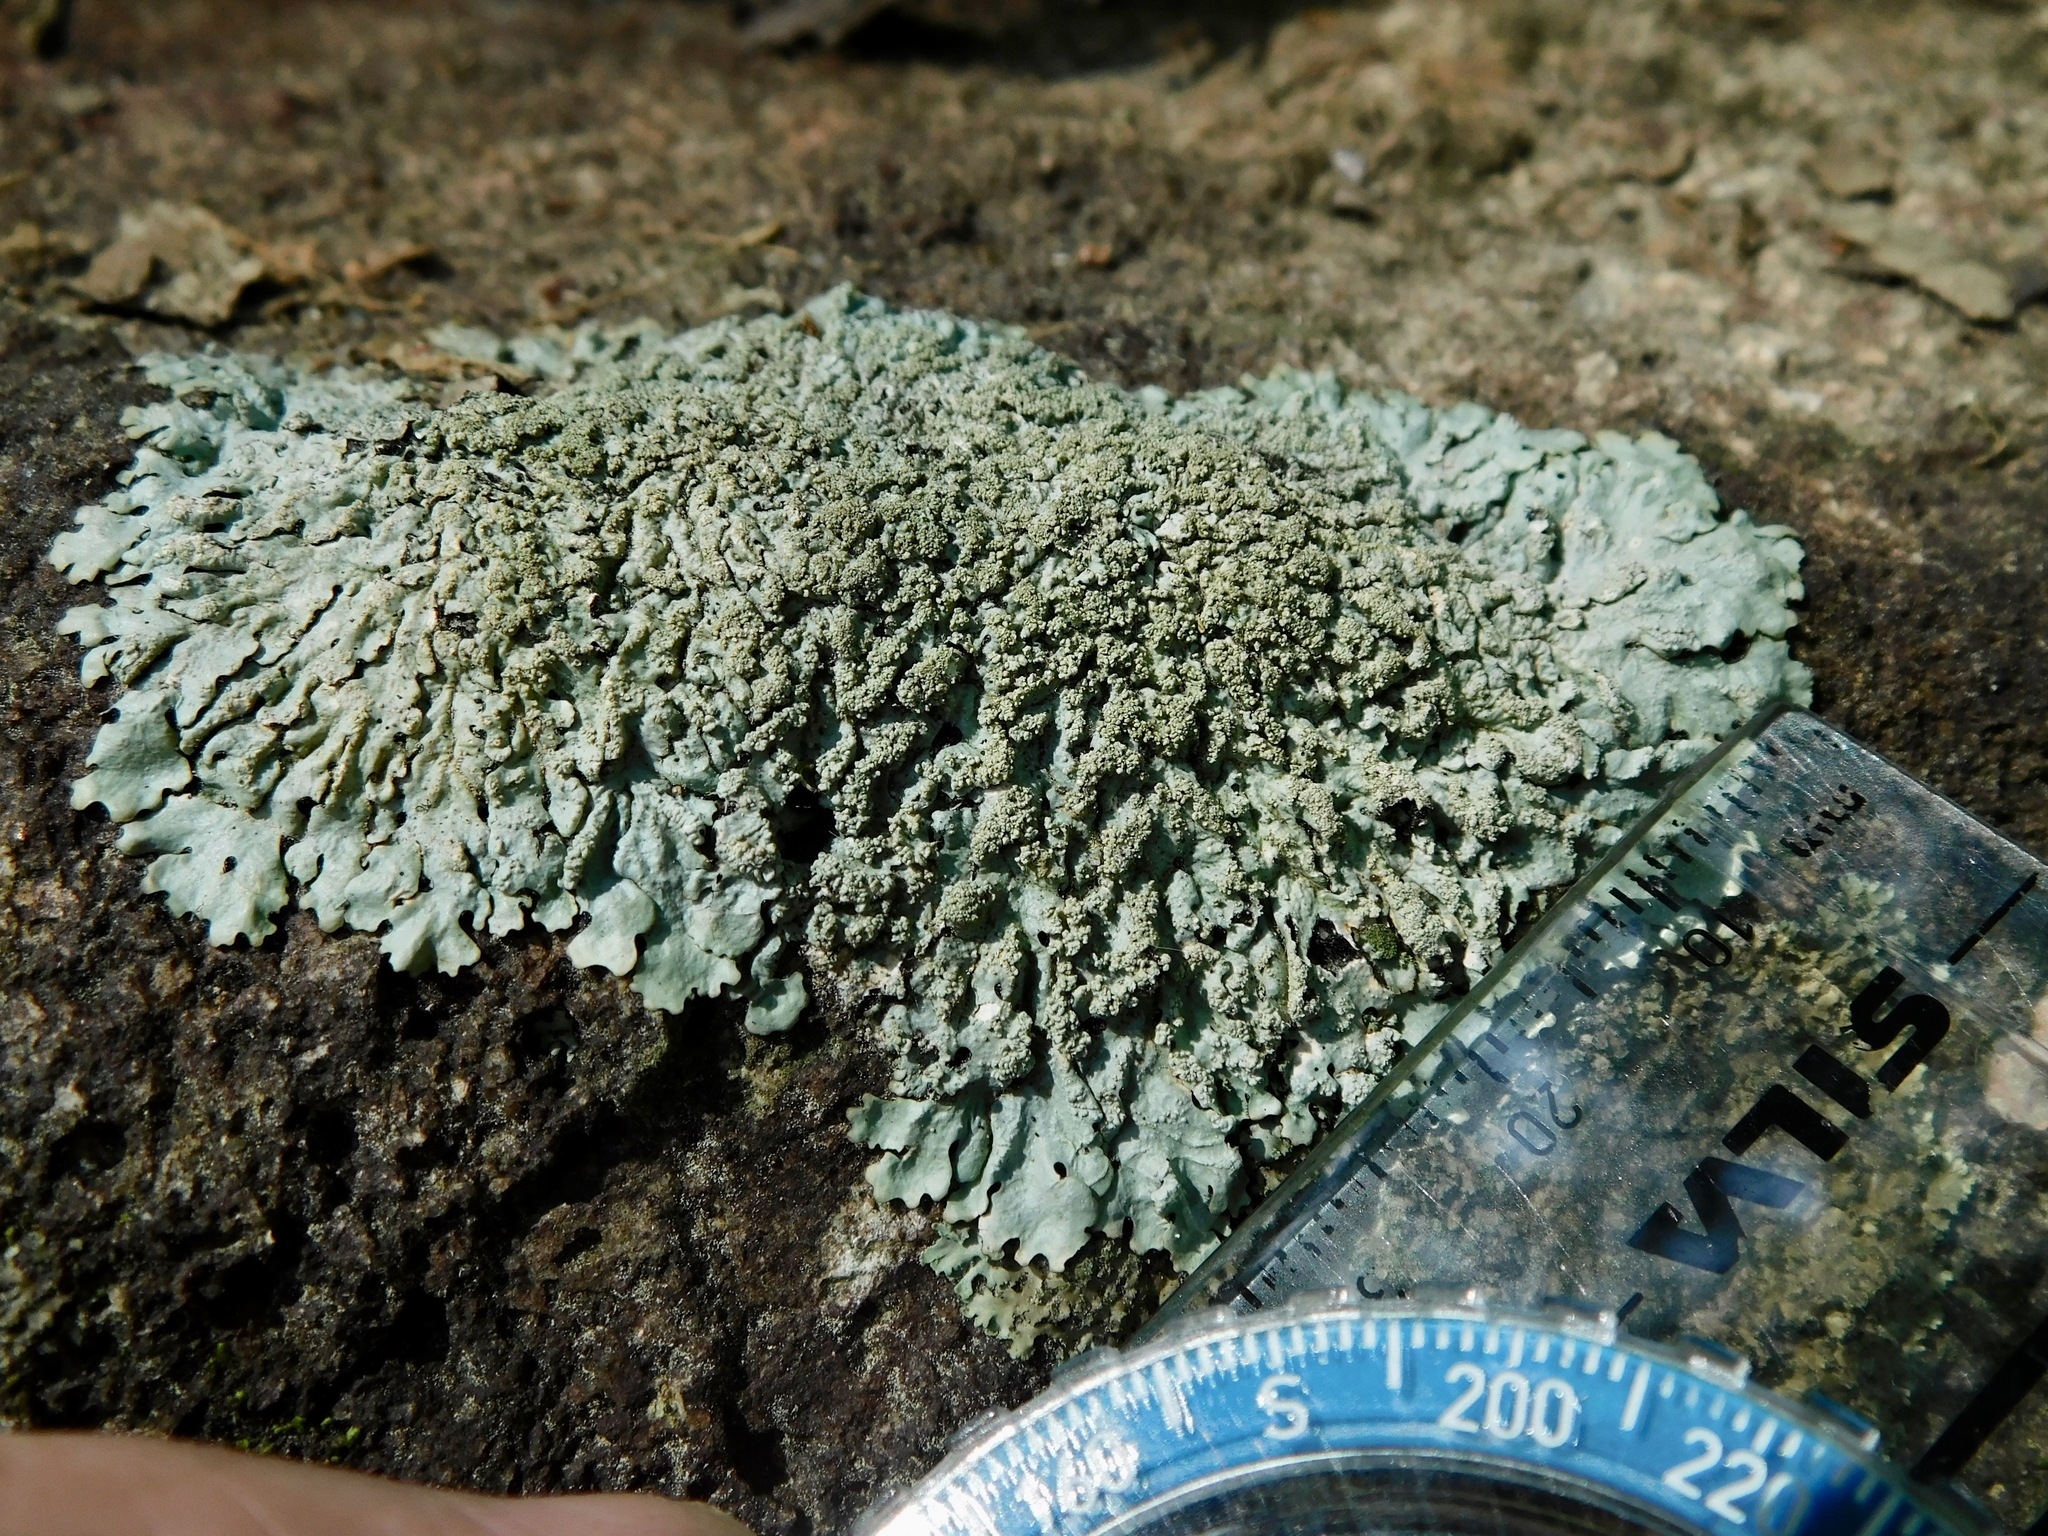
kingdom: Fungi
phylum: Ascomycota
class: Lecanoromycetes
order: Lecanorales
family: Parmeliaceae
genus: Myelochroa
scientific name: Myelochroa aurulenta
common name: Powdery axil-bristle lichen
